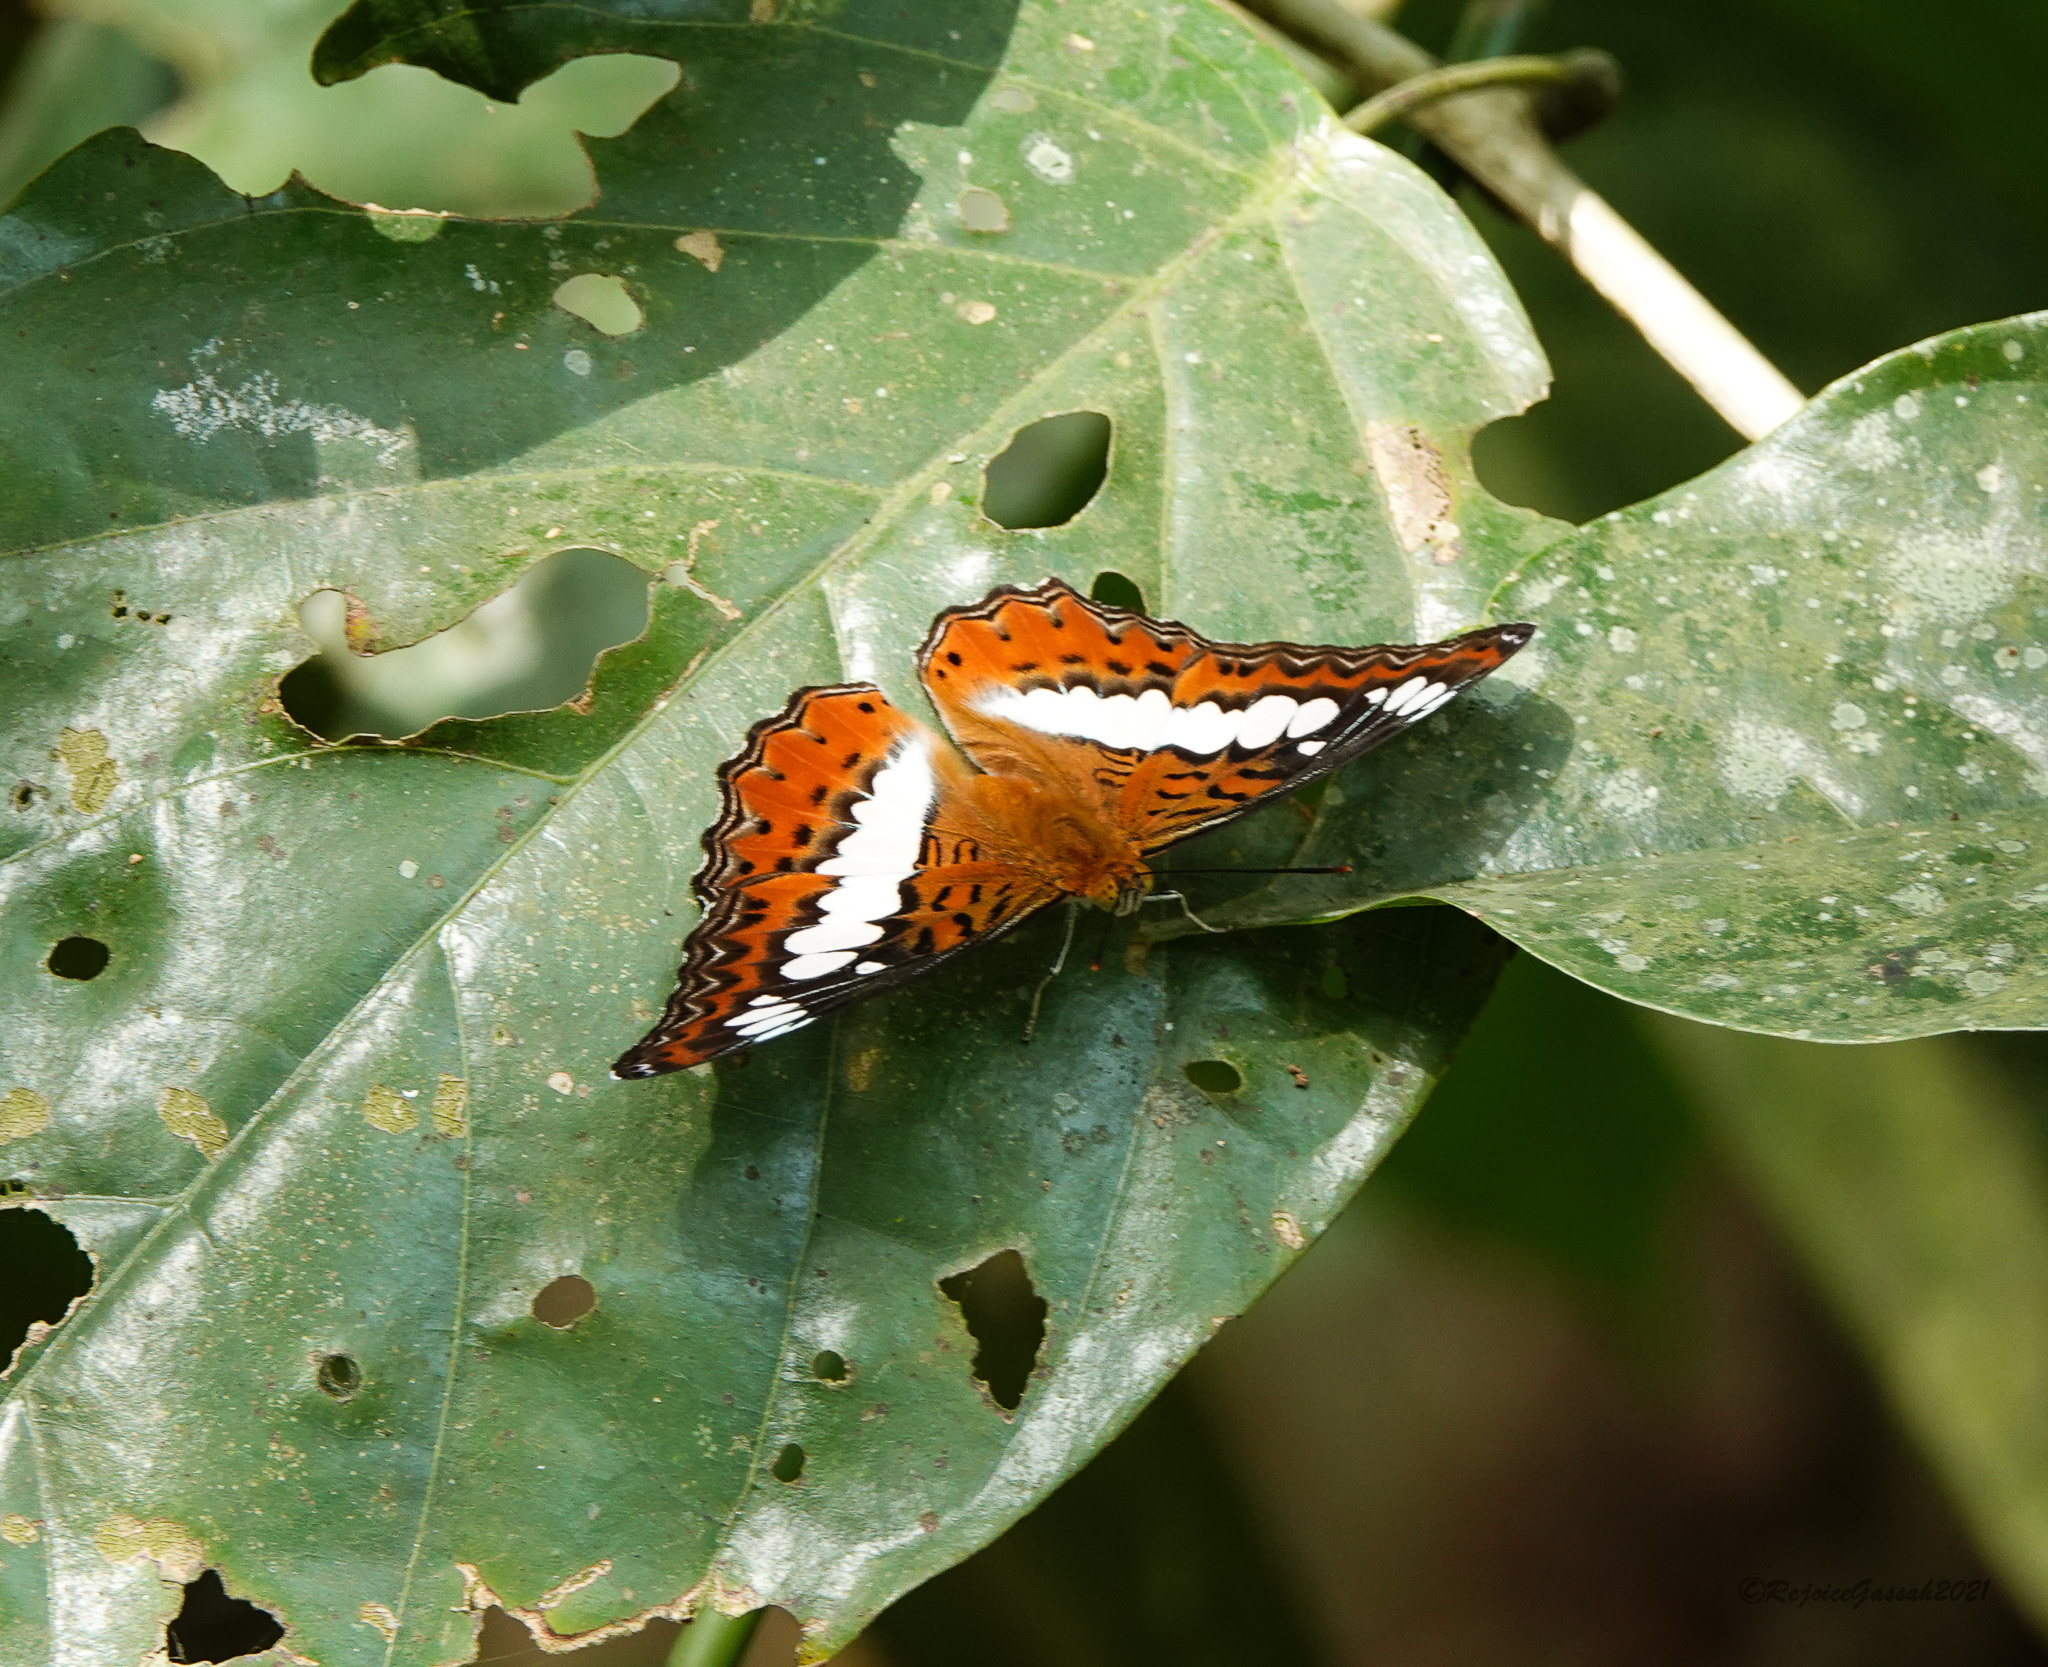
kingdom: Animalia
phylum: Arthropoda
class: Insecta
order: Lepidoptera
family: Nymphalidae
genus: Limenitis
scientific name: Limenitis Moduza procris
